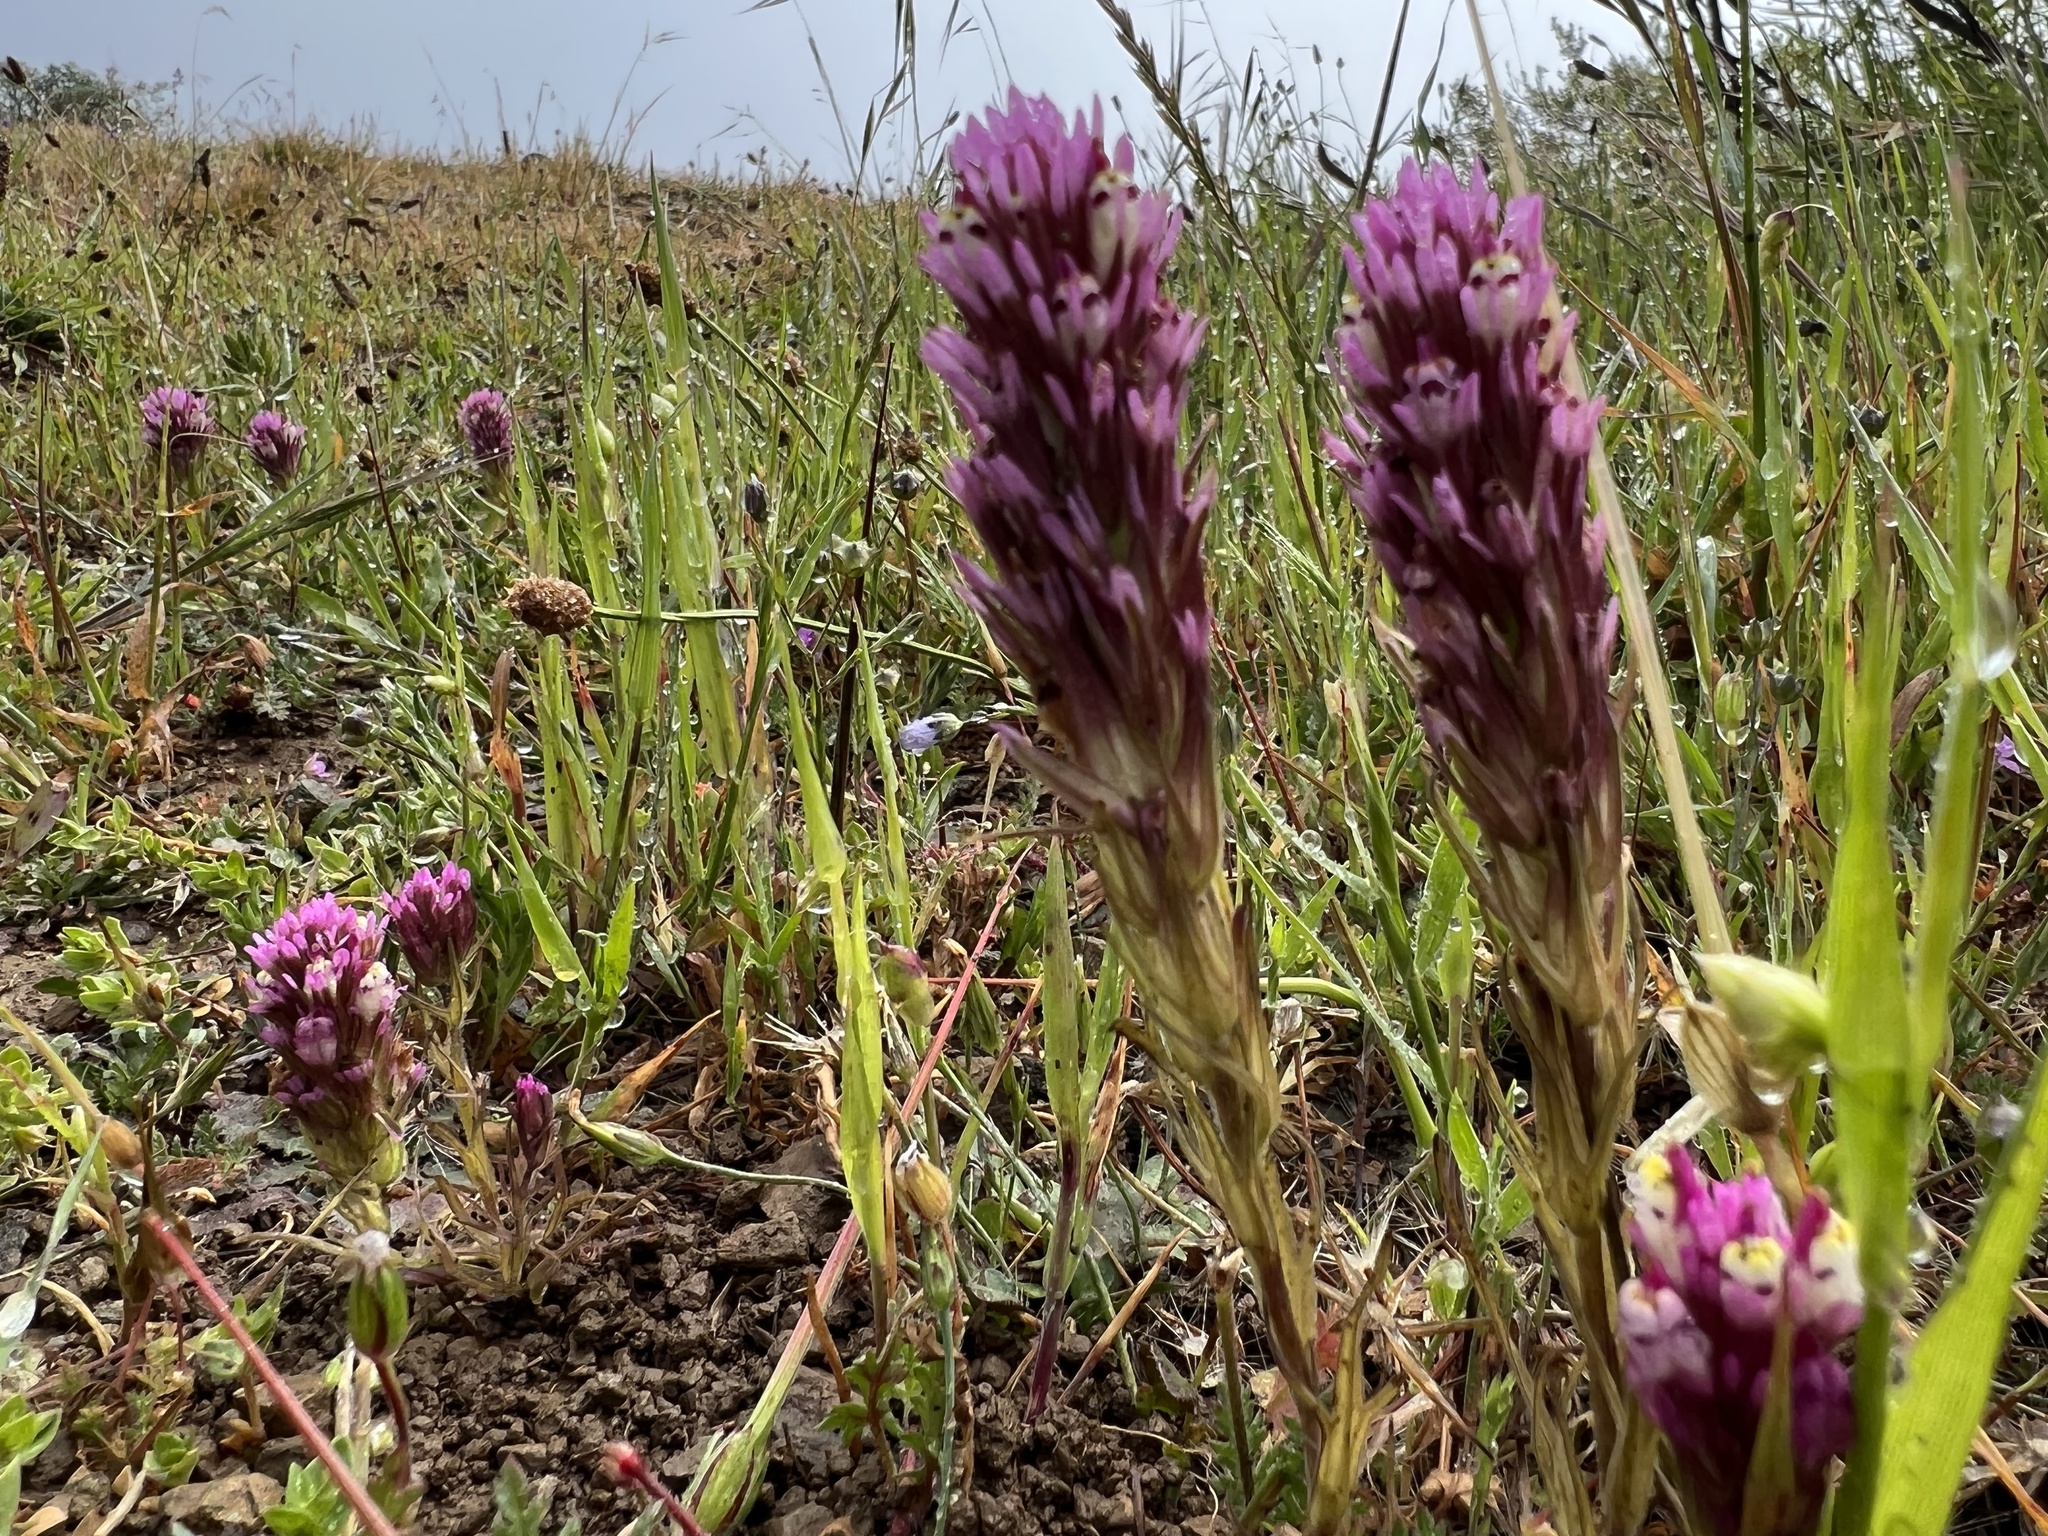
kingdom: Plantae
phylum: Tracheophyta
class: Magnoliopsida
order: Lamiales
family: Orobanchaceae
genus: Castilleja
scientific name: Castilleja densiflora
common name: Dense-flower indian paintbrush
